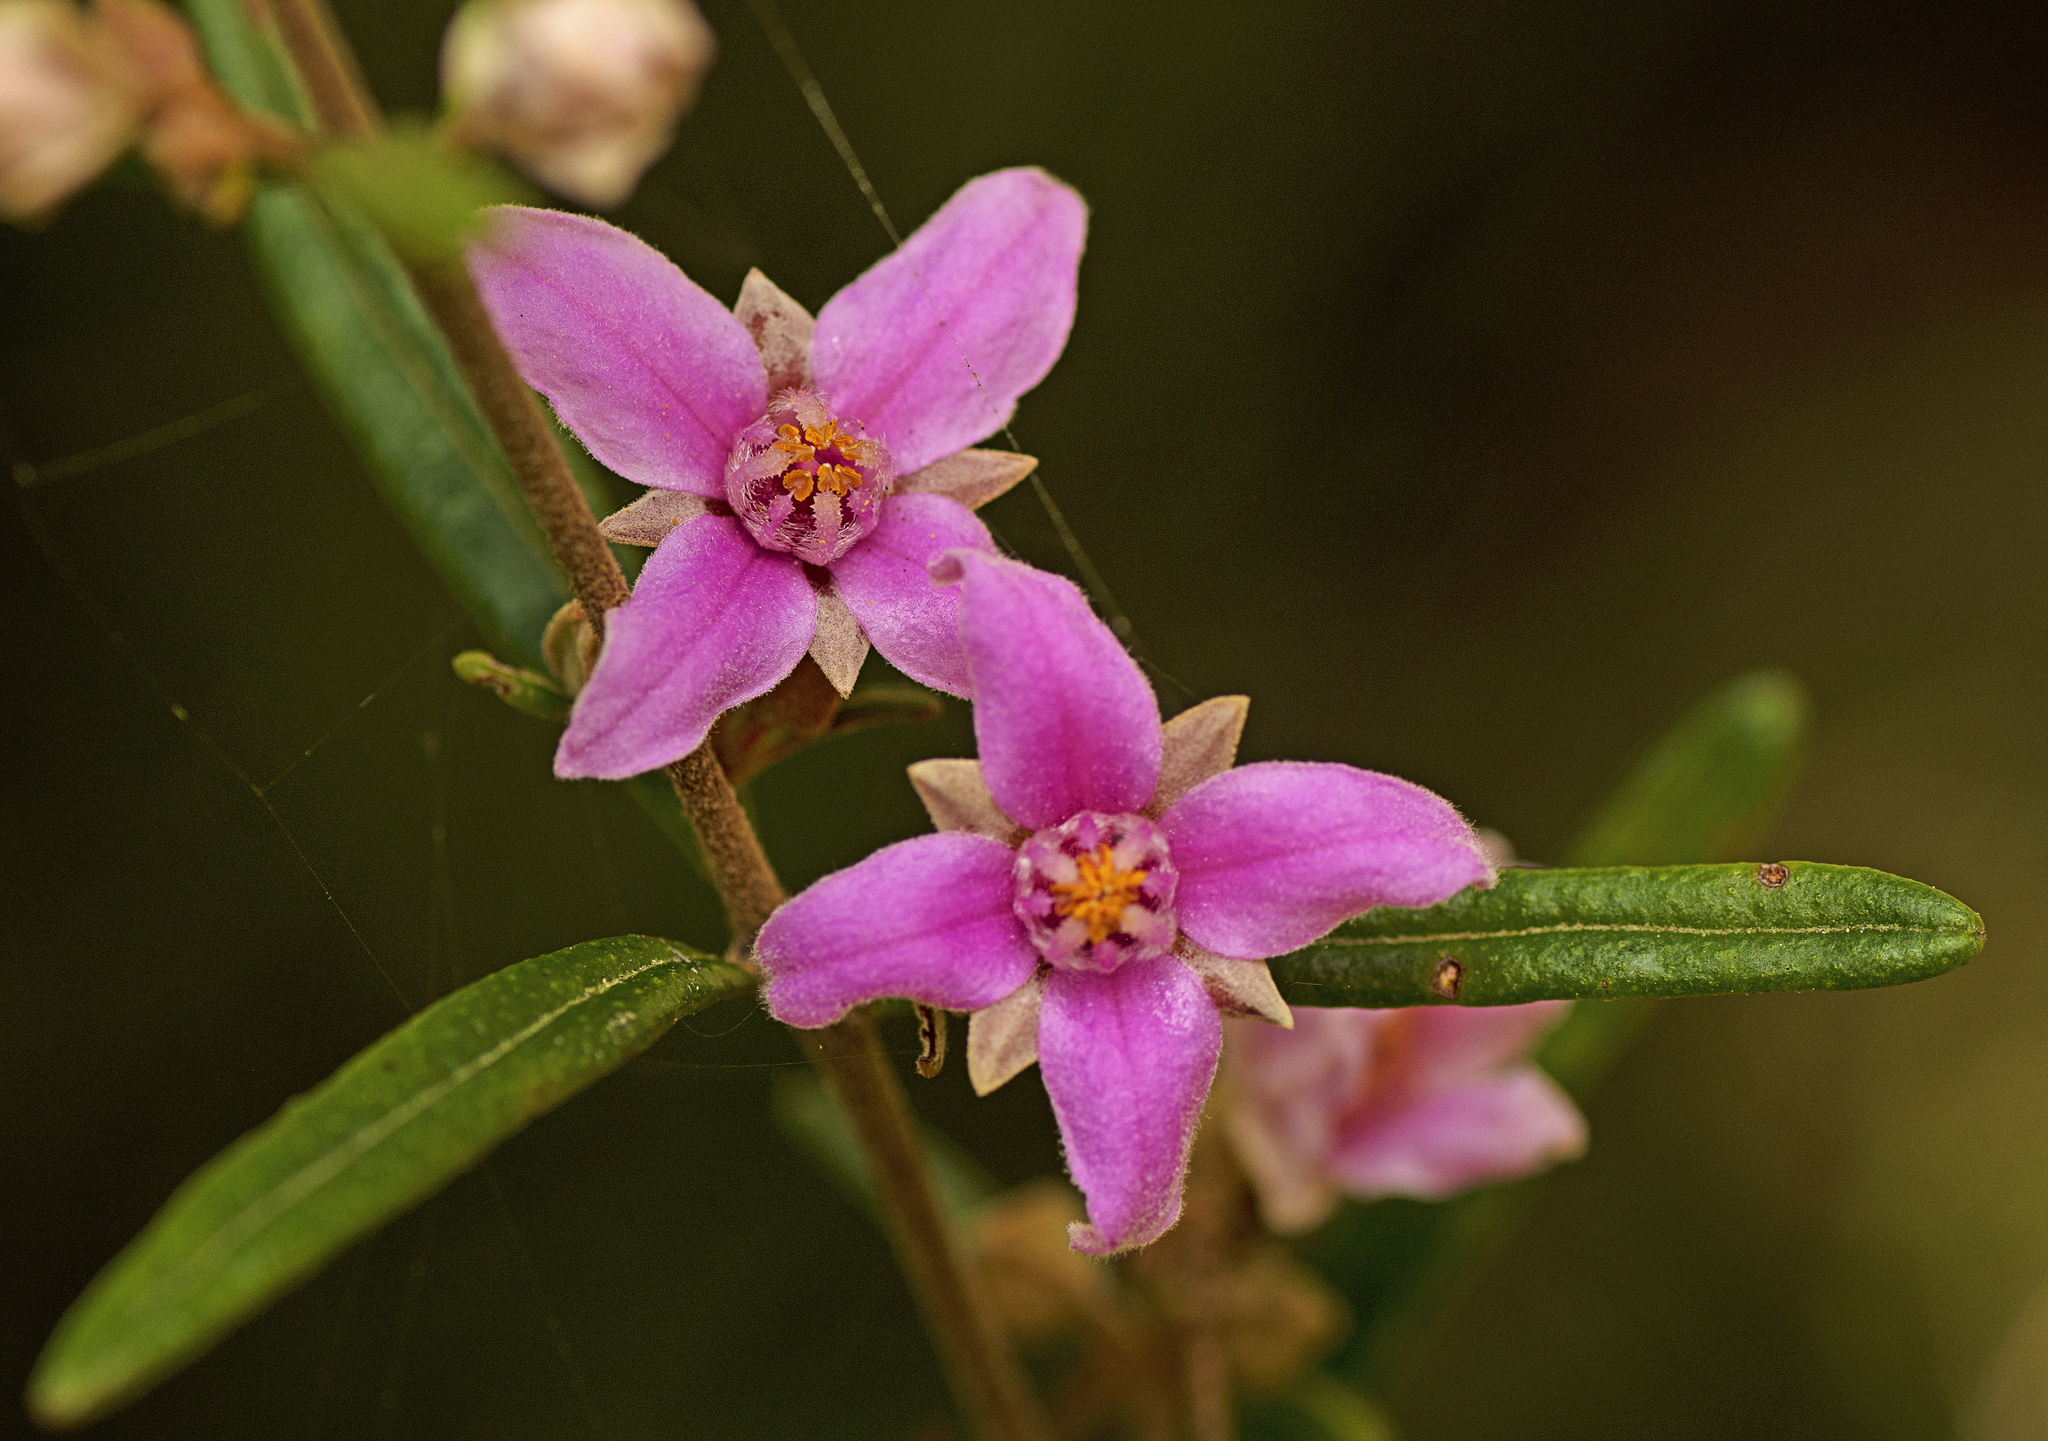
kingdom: Plantae
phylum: Tracheophyta
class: Magnoliopsida
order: Sapindales
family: Rutaceae
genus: Boronia
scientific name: Boronia rosmarinifolia
